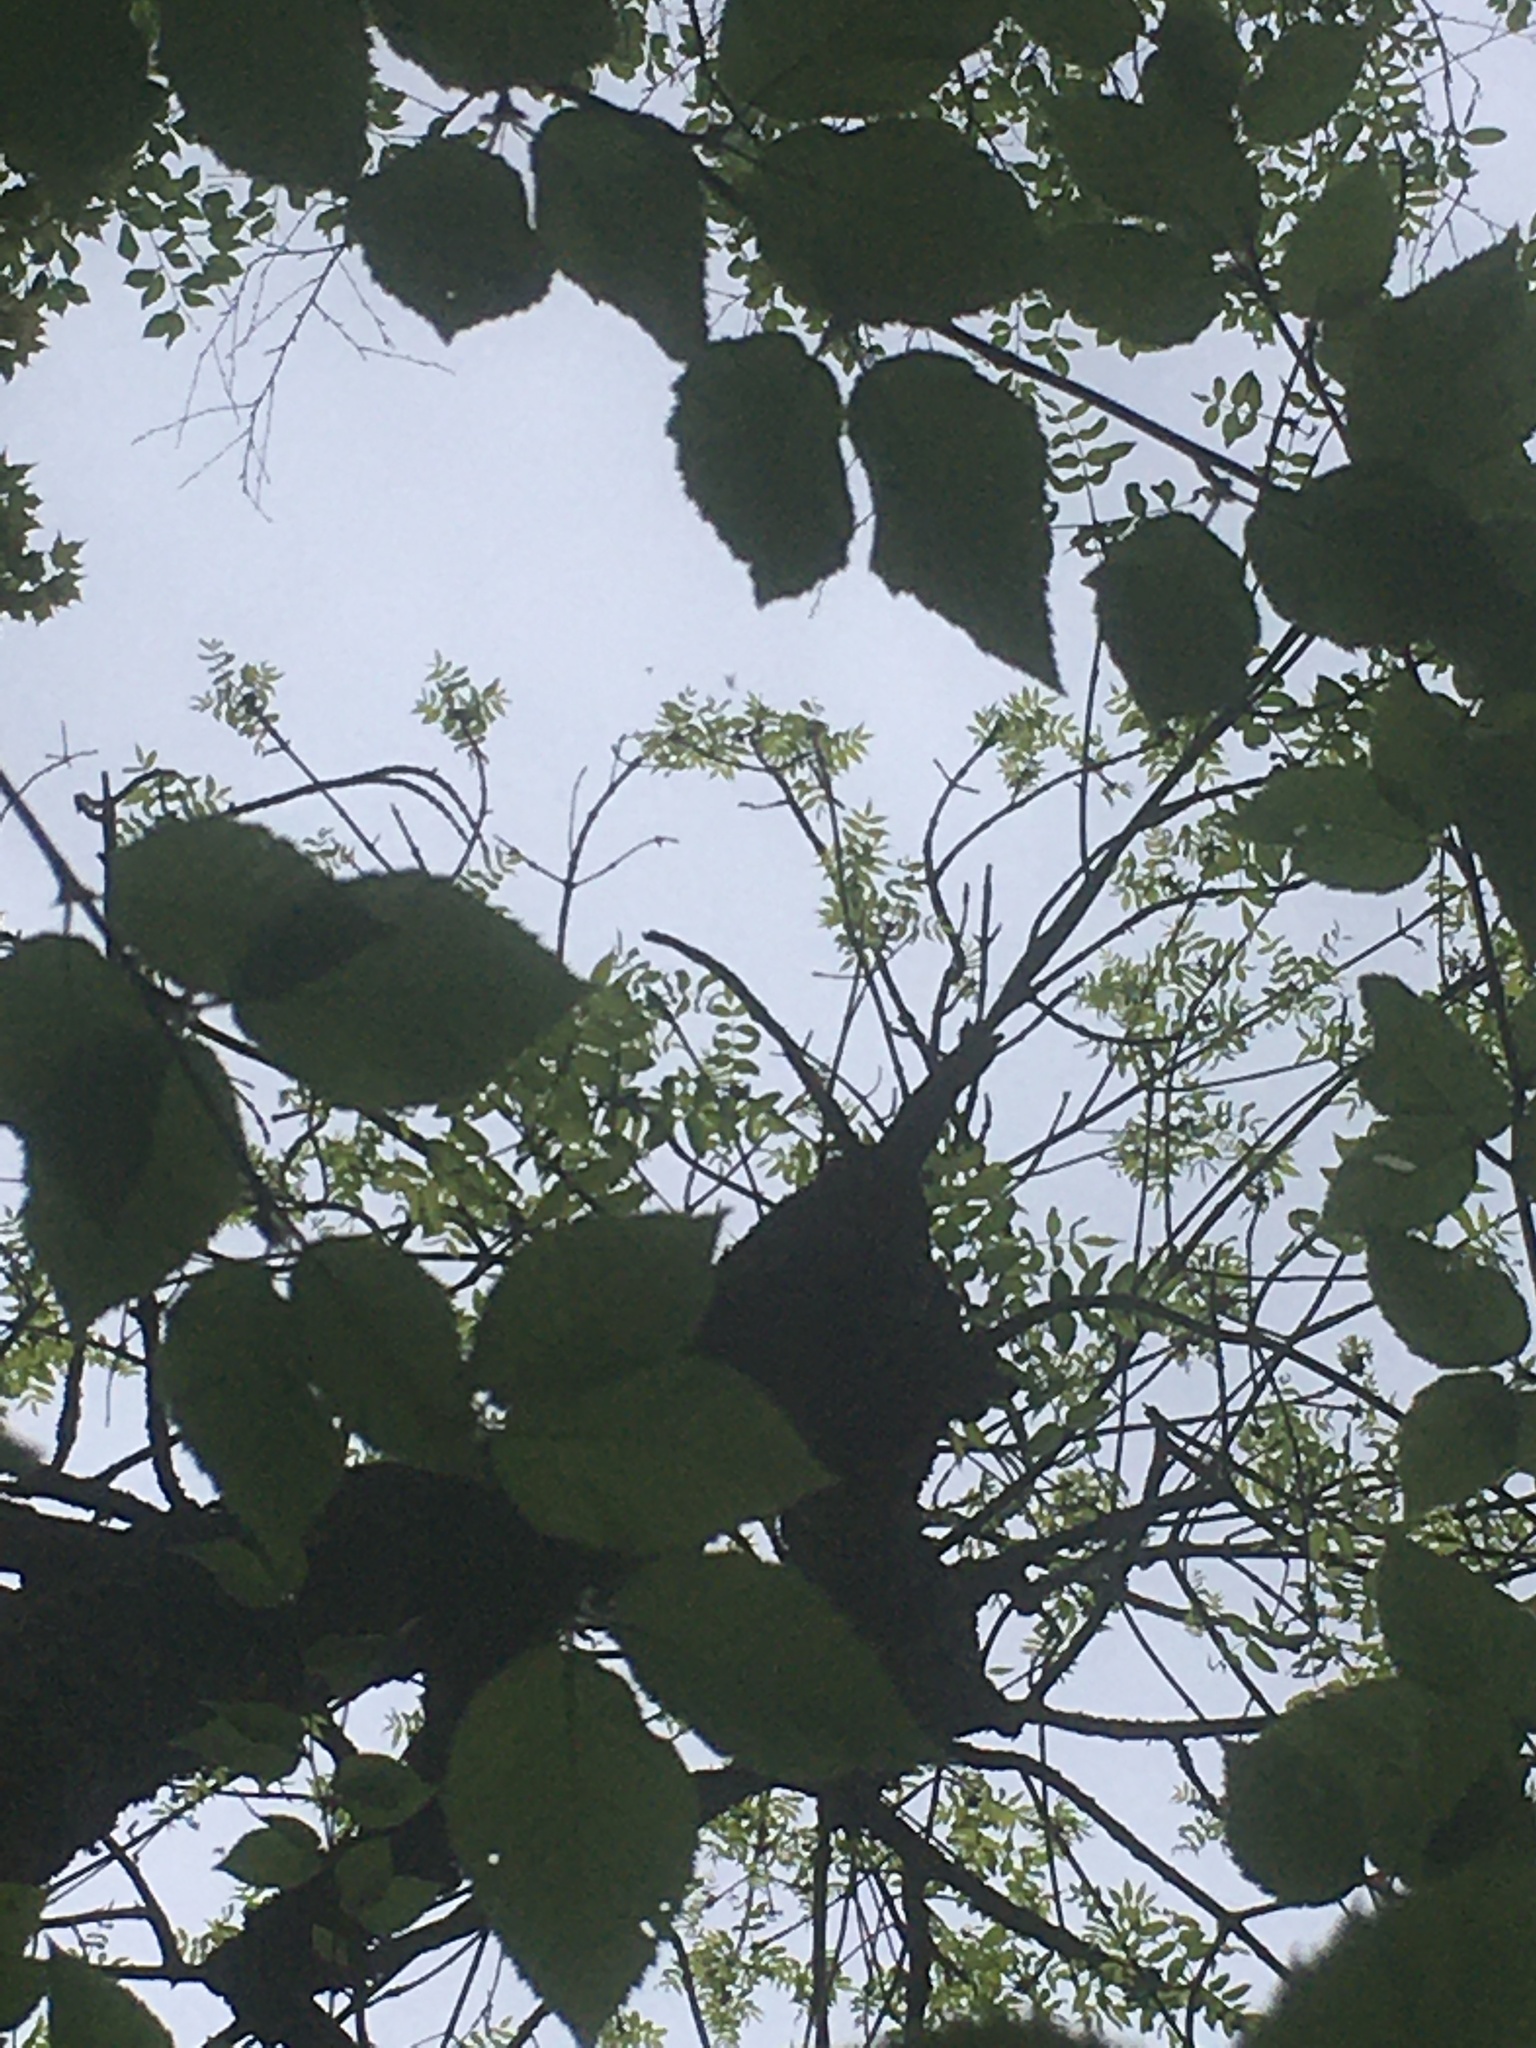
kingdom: Plantae
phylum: Tracheophyta
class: Magnoliopsida
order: Lamiales
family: Oleaceae
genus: Fraxinus
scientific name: Fraxinus nigra
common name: Black ash
